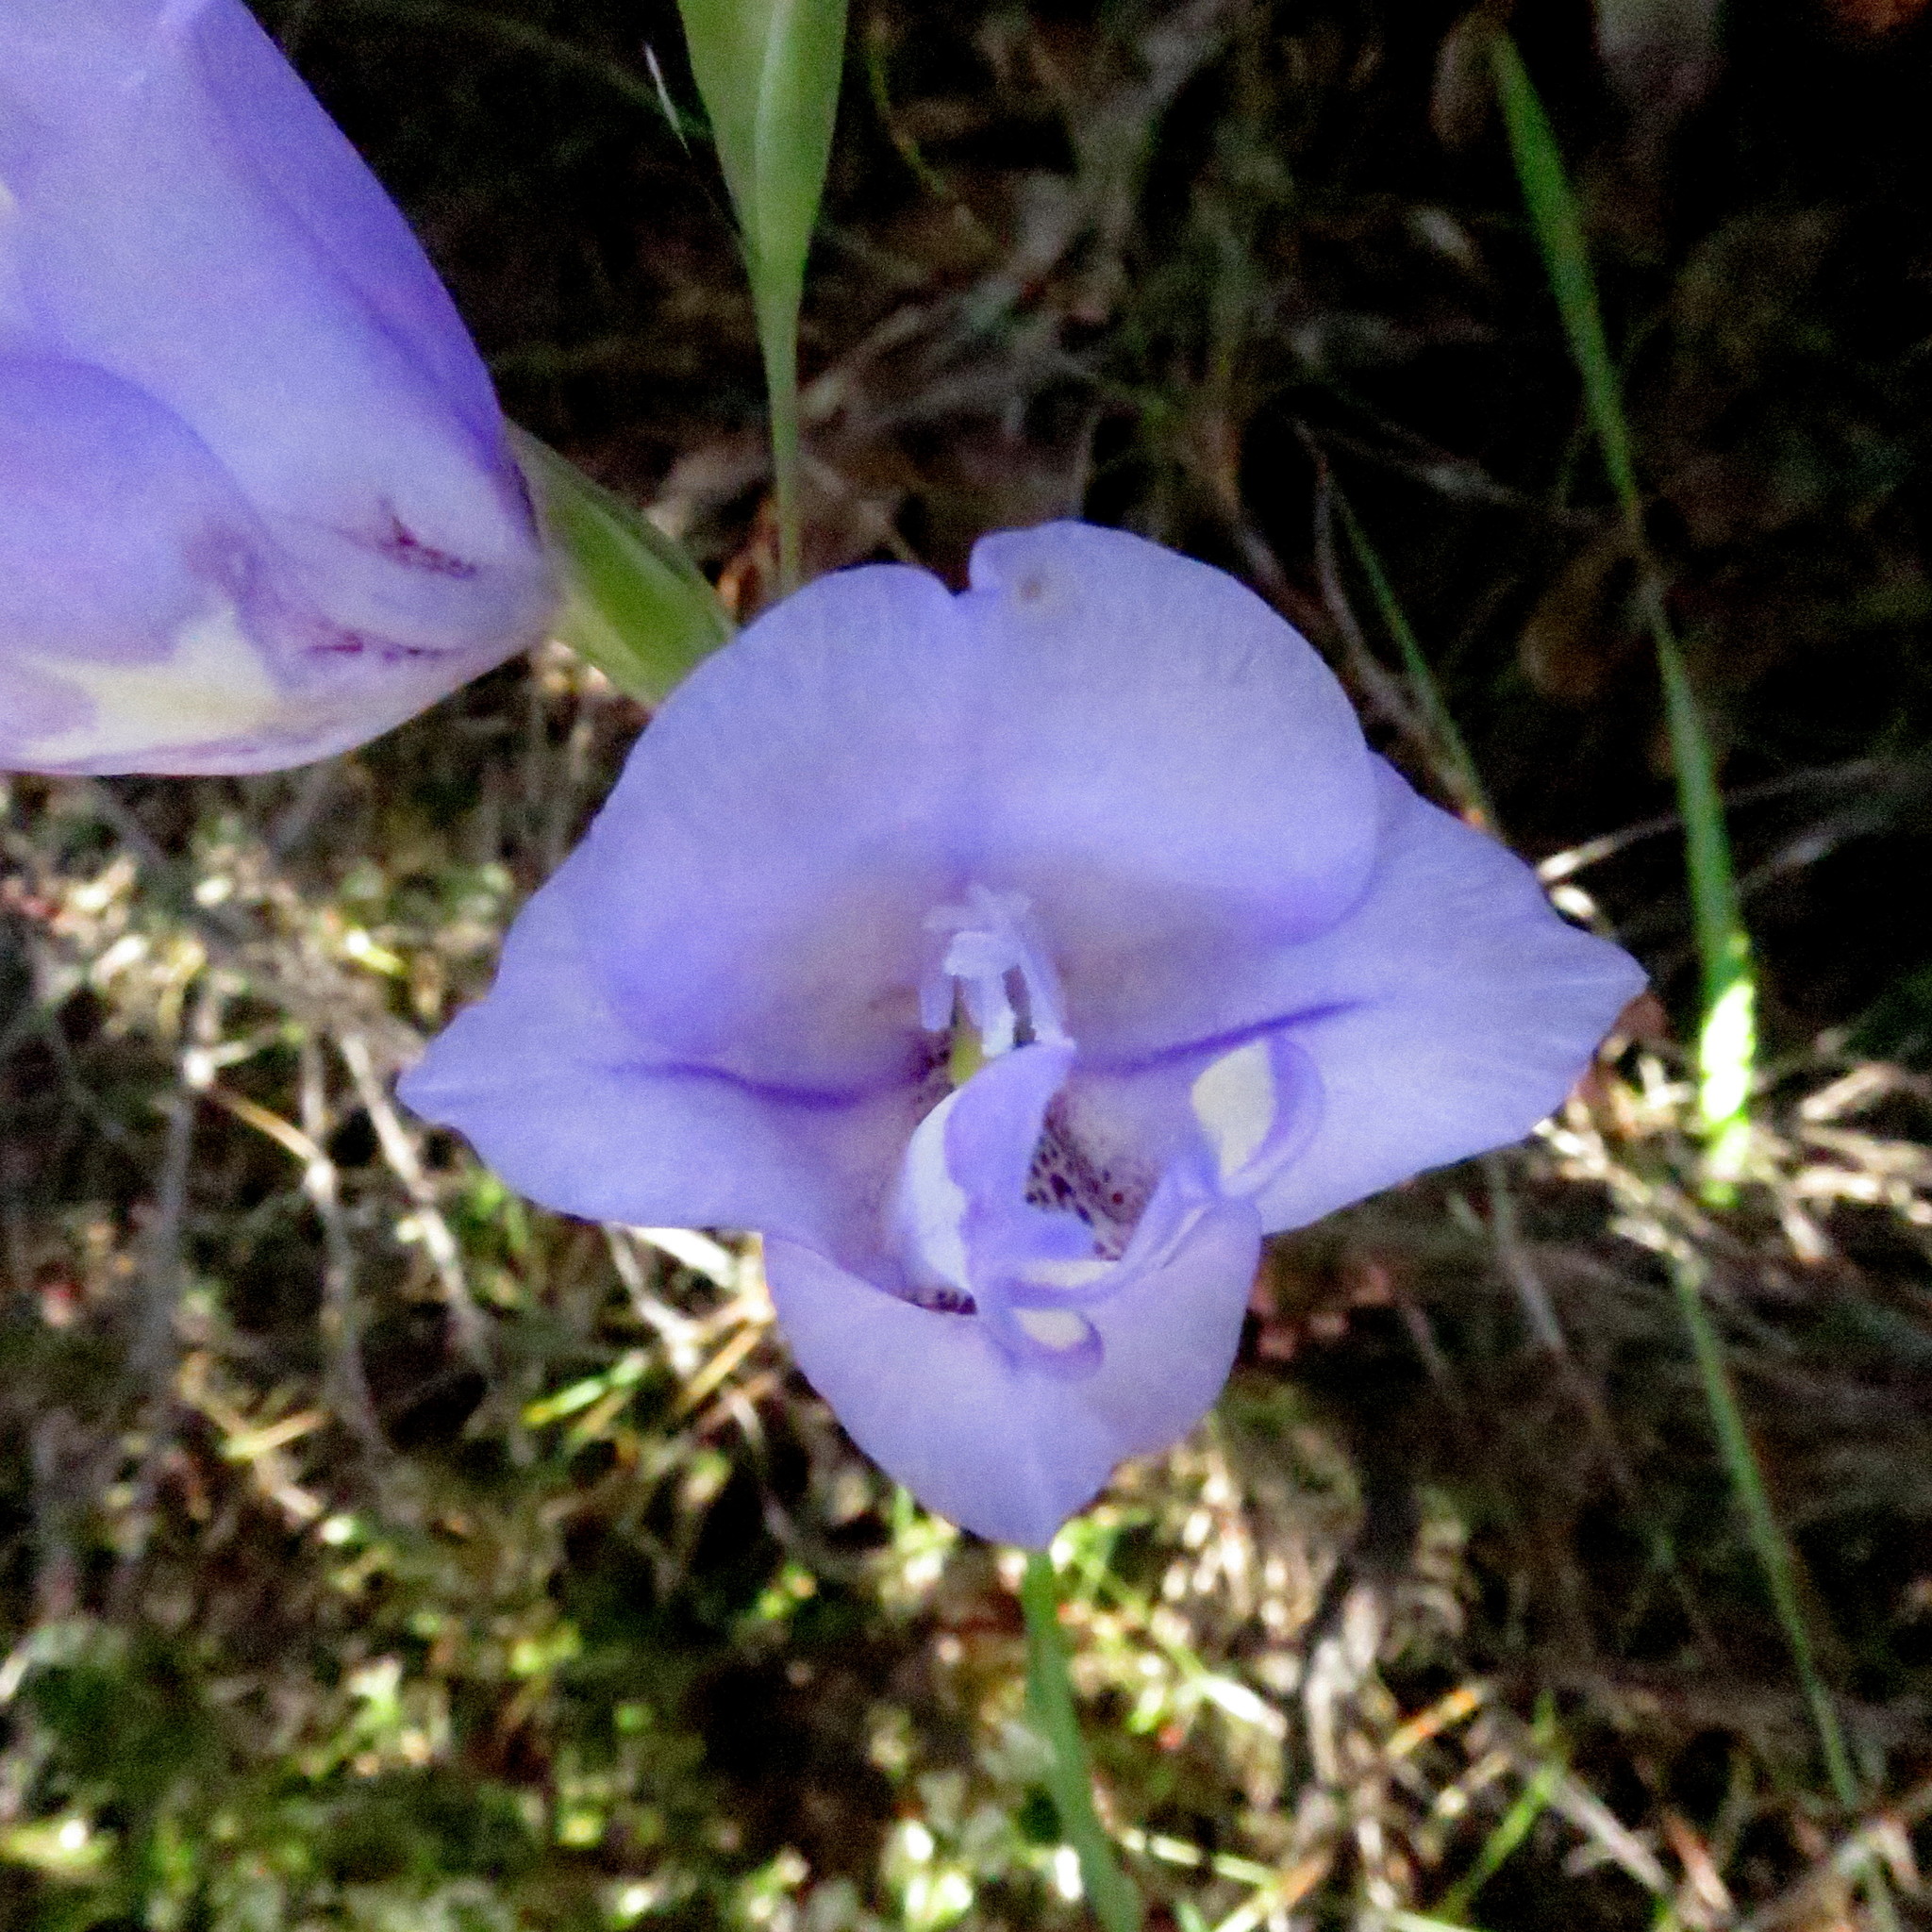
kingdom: Plantae
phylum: Tracheophyta
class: Liliopsida
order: Asparagales
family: Iridaceae
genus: Gladiolus
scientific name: Gladiolus rogersii
